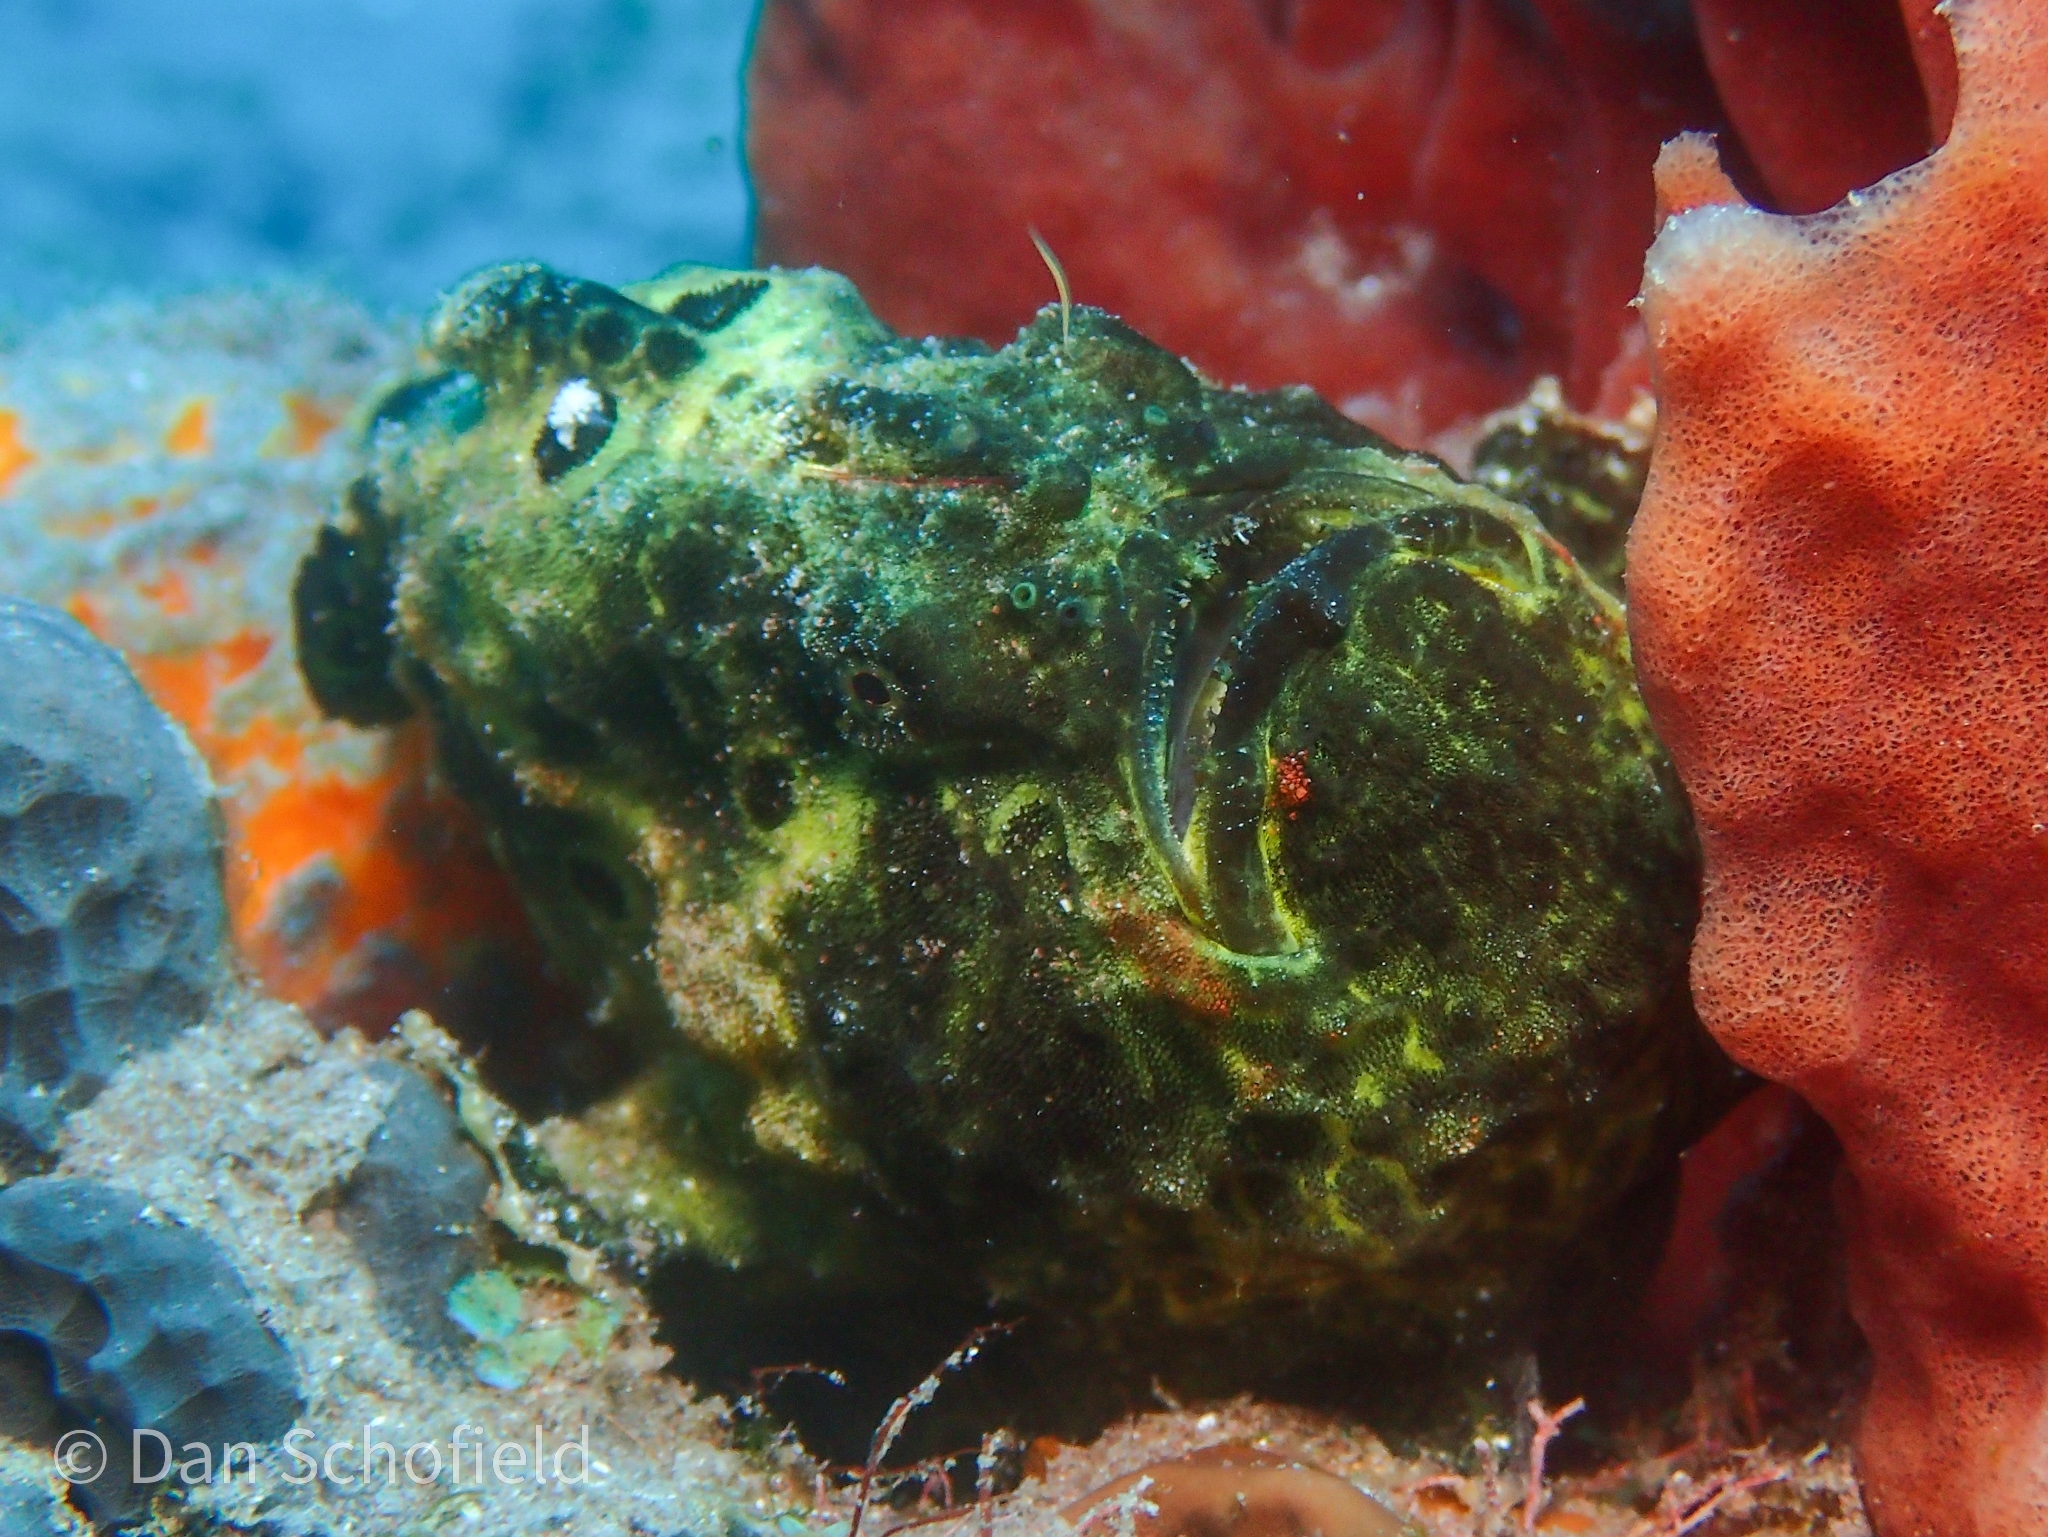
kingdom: Animalia
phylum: Chordata
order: Lophiiformes
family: Antennariidae
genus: Antennarius
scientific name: Antennarius multiocellatus
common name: Longlure frogfish
